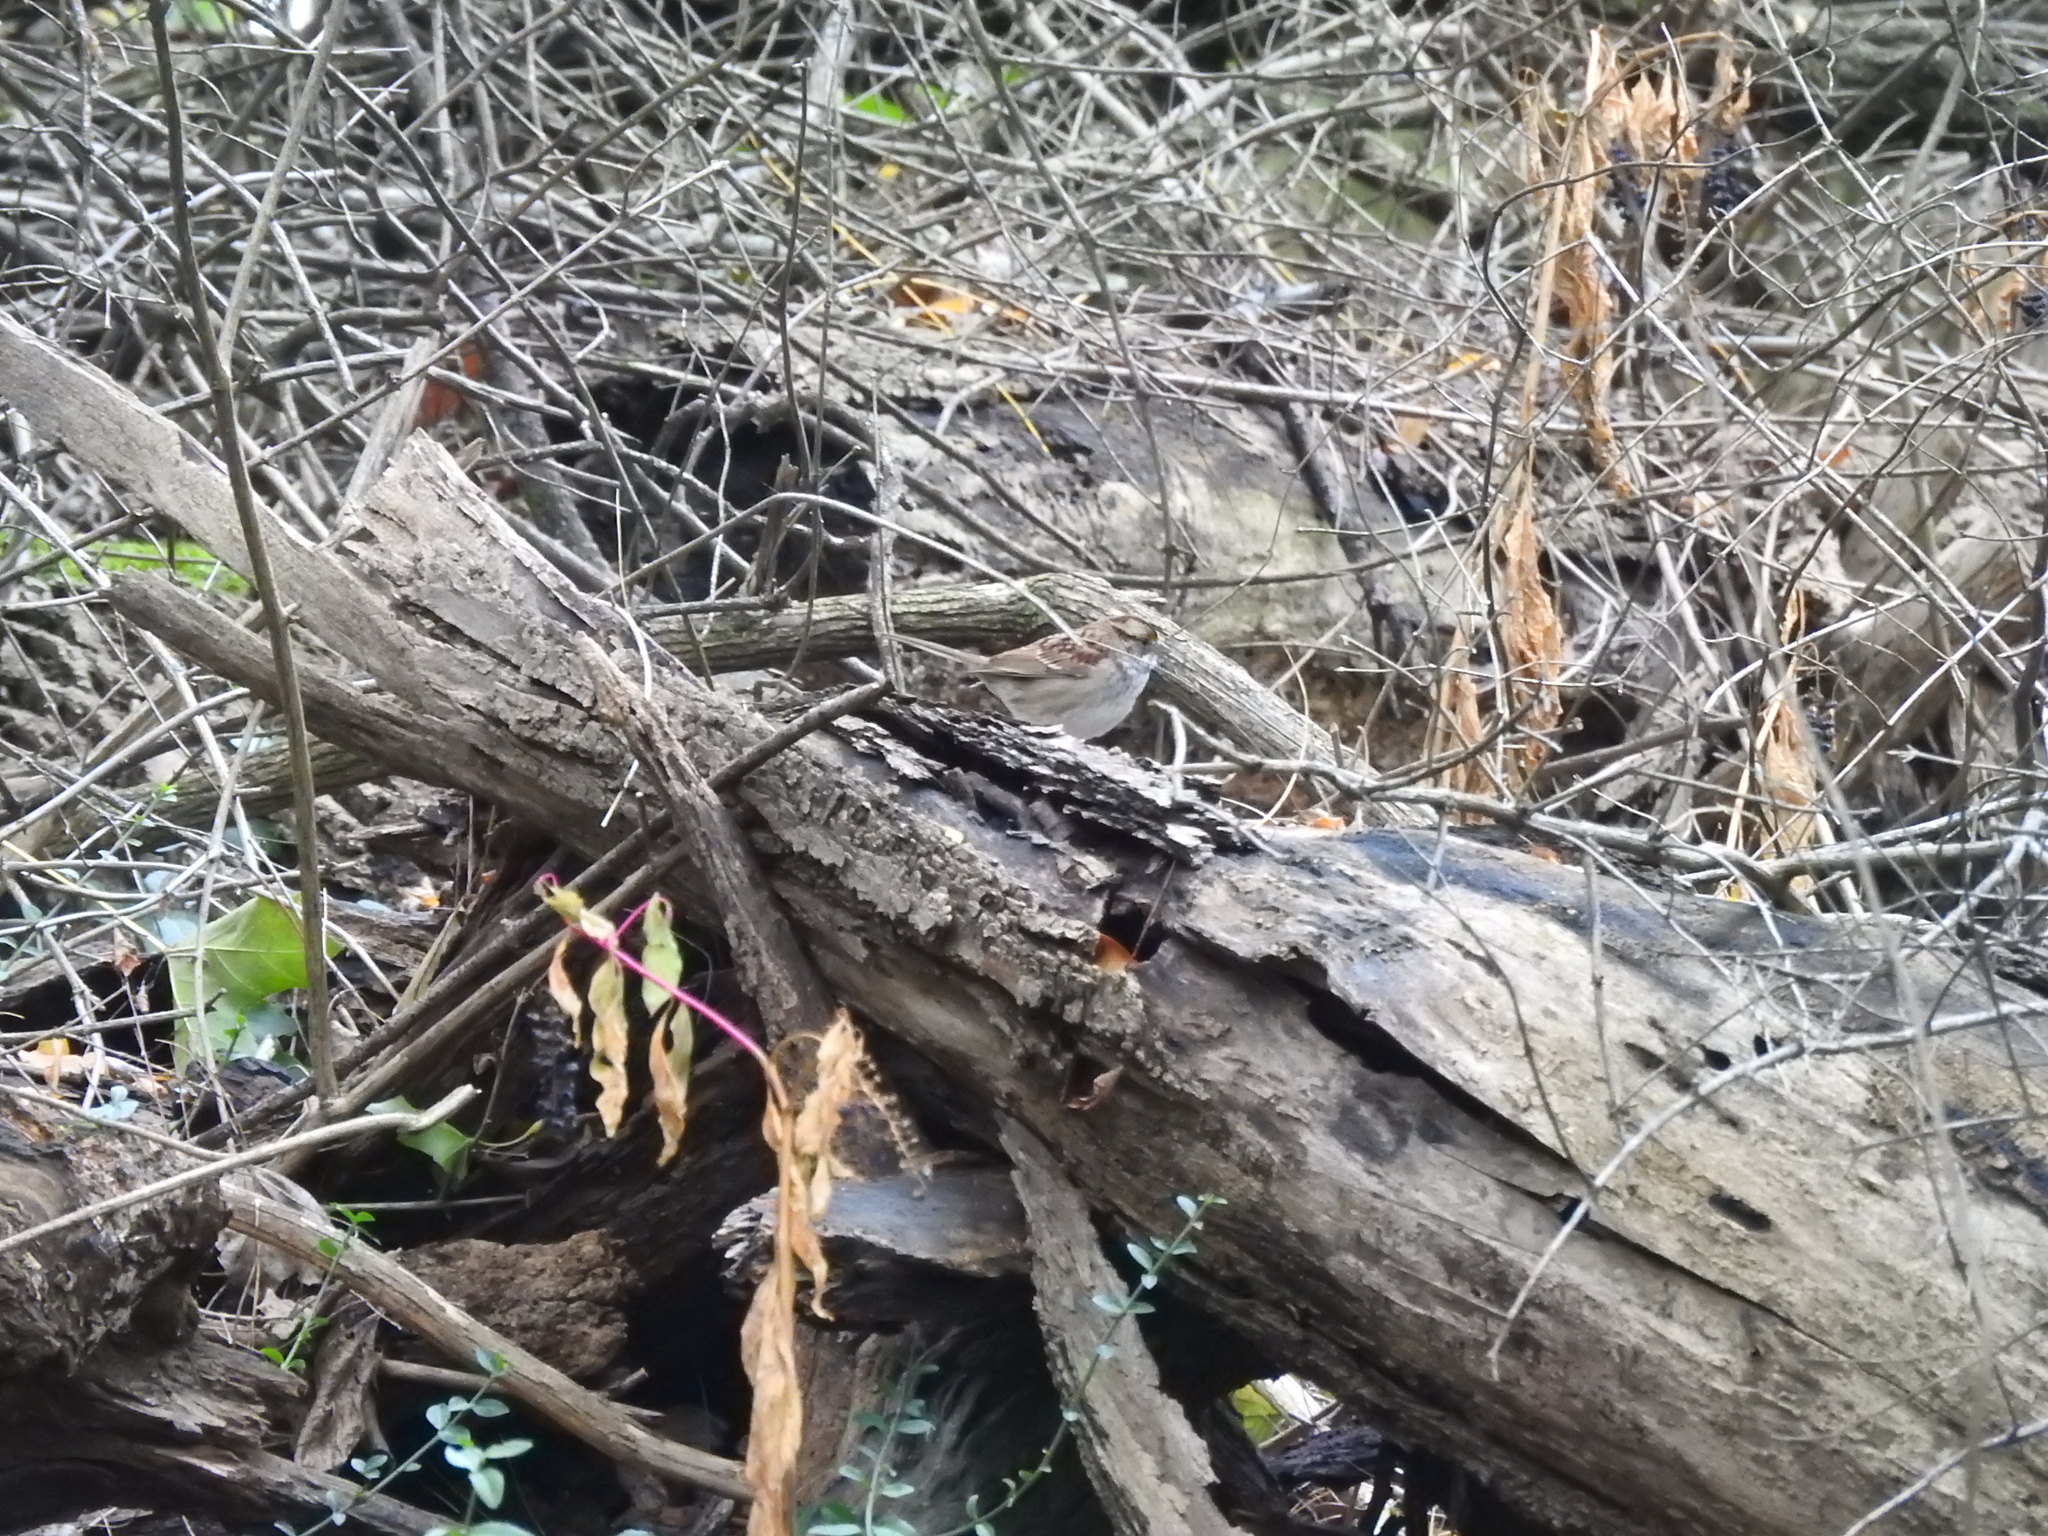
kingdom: Animalia
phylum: Chordata
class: Aves
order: Passeriformes
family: Passerellidae
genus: Zonotrichia
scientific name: Zonotrichia albicollis
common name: White-throated sparrow
